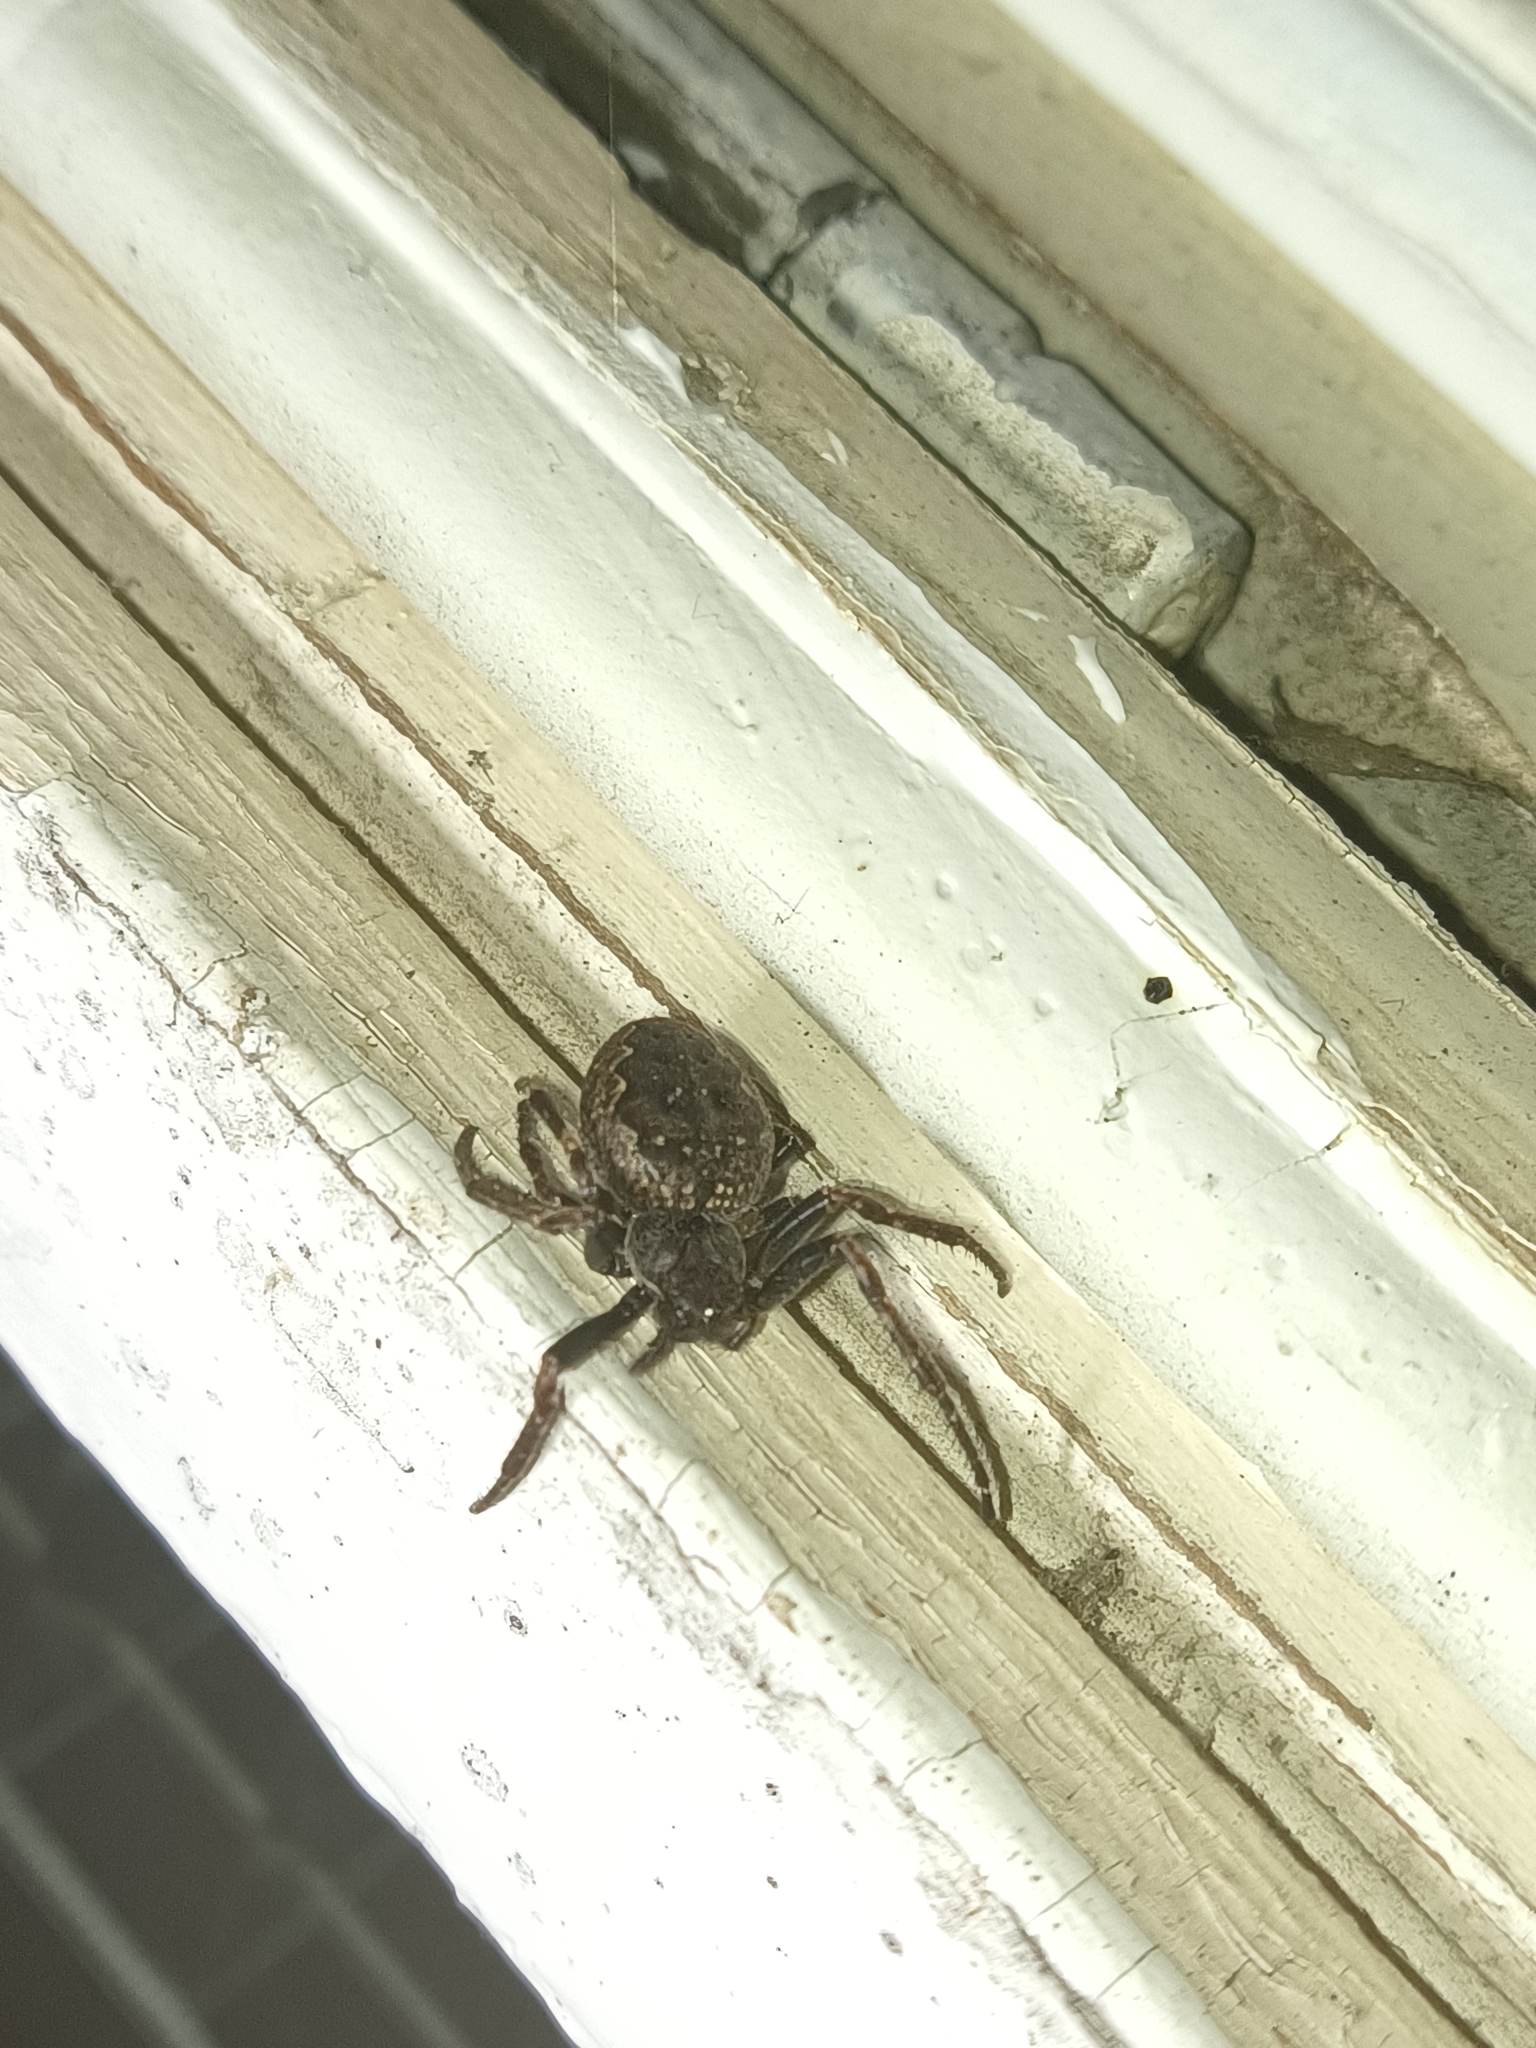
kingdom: Animalia
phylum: Arthropoda
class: Arachnida
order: Araneae
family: Araneidae
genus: Nuctenea
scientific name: Nuctenea umbratica
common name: Toad spider
